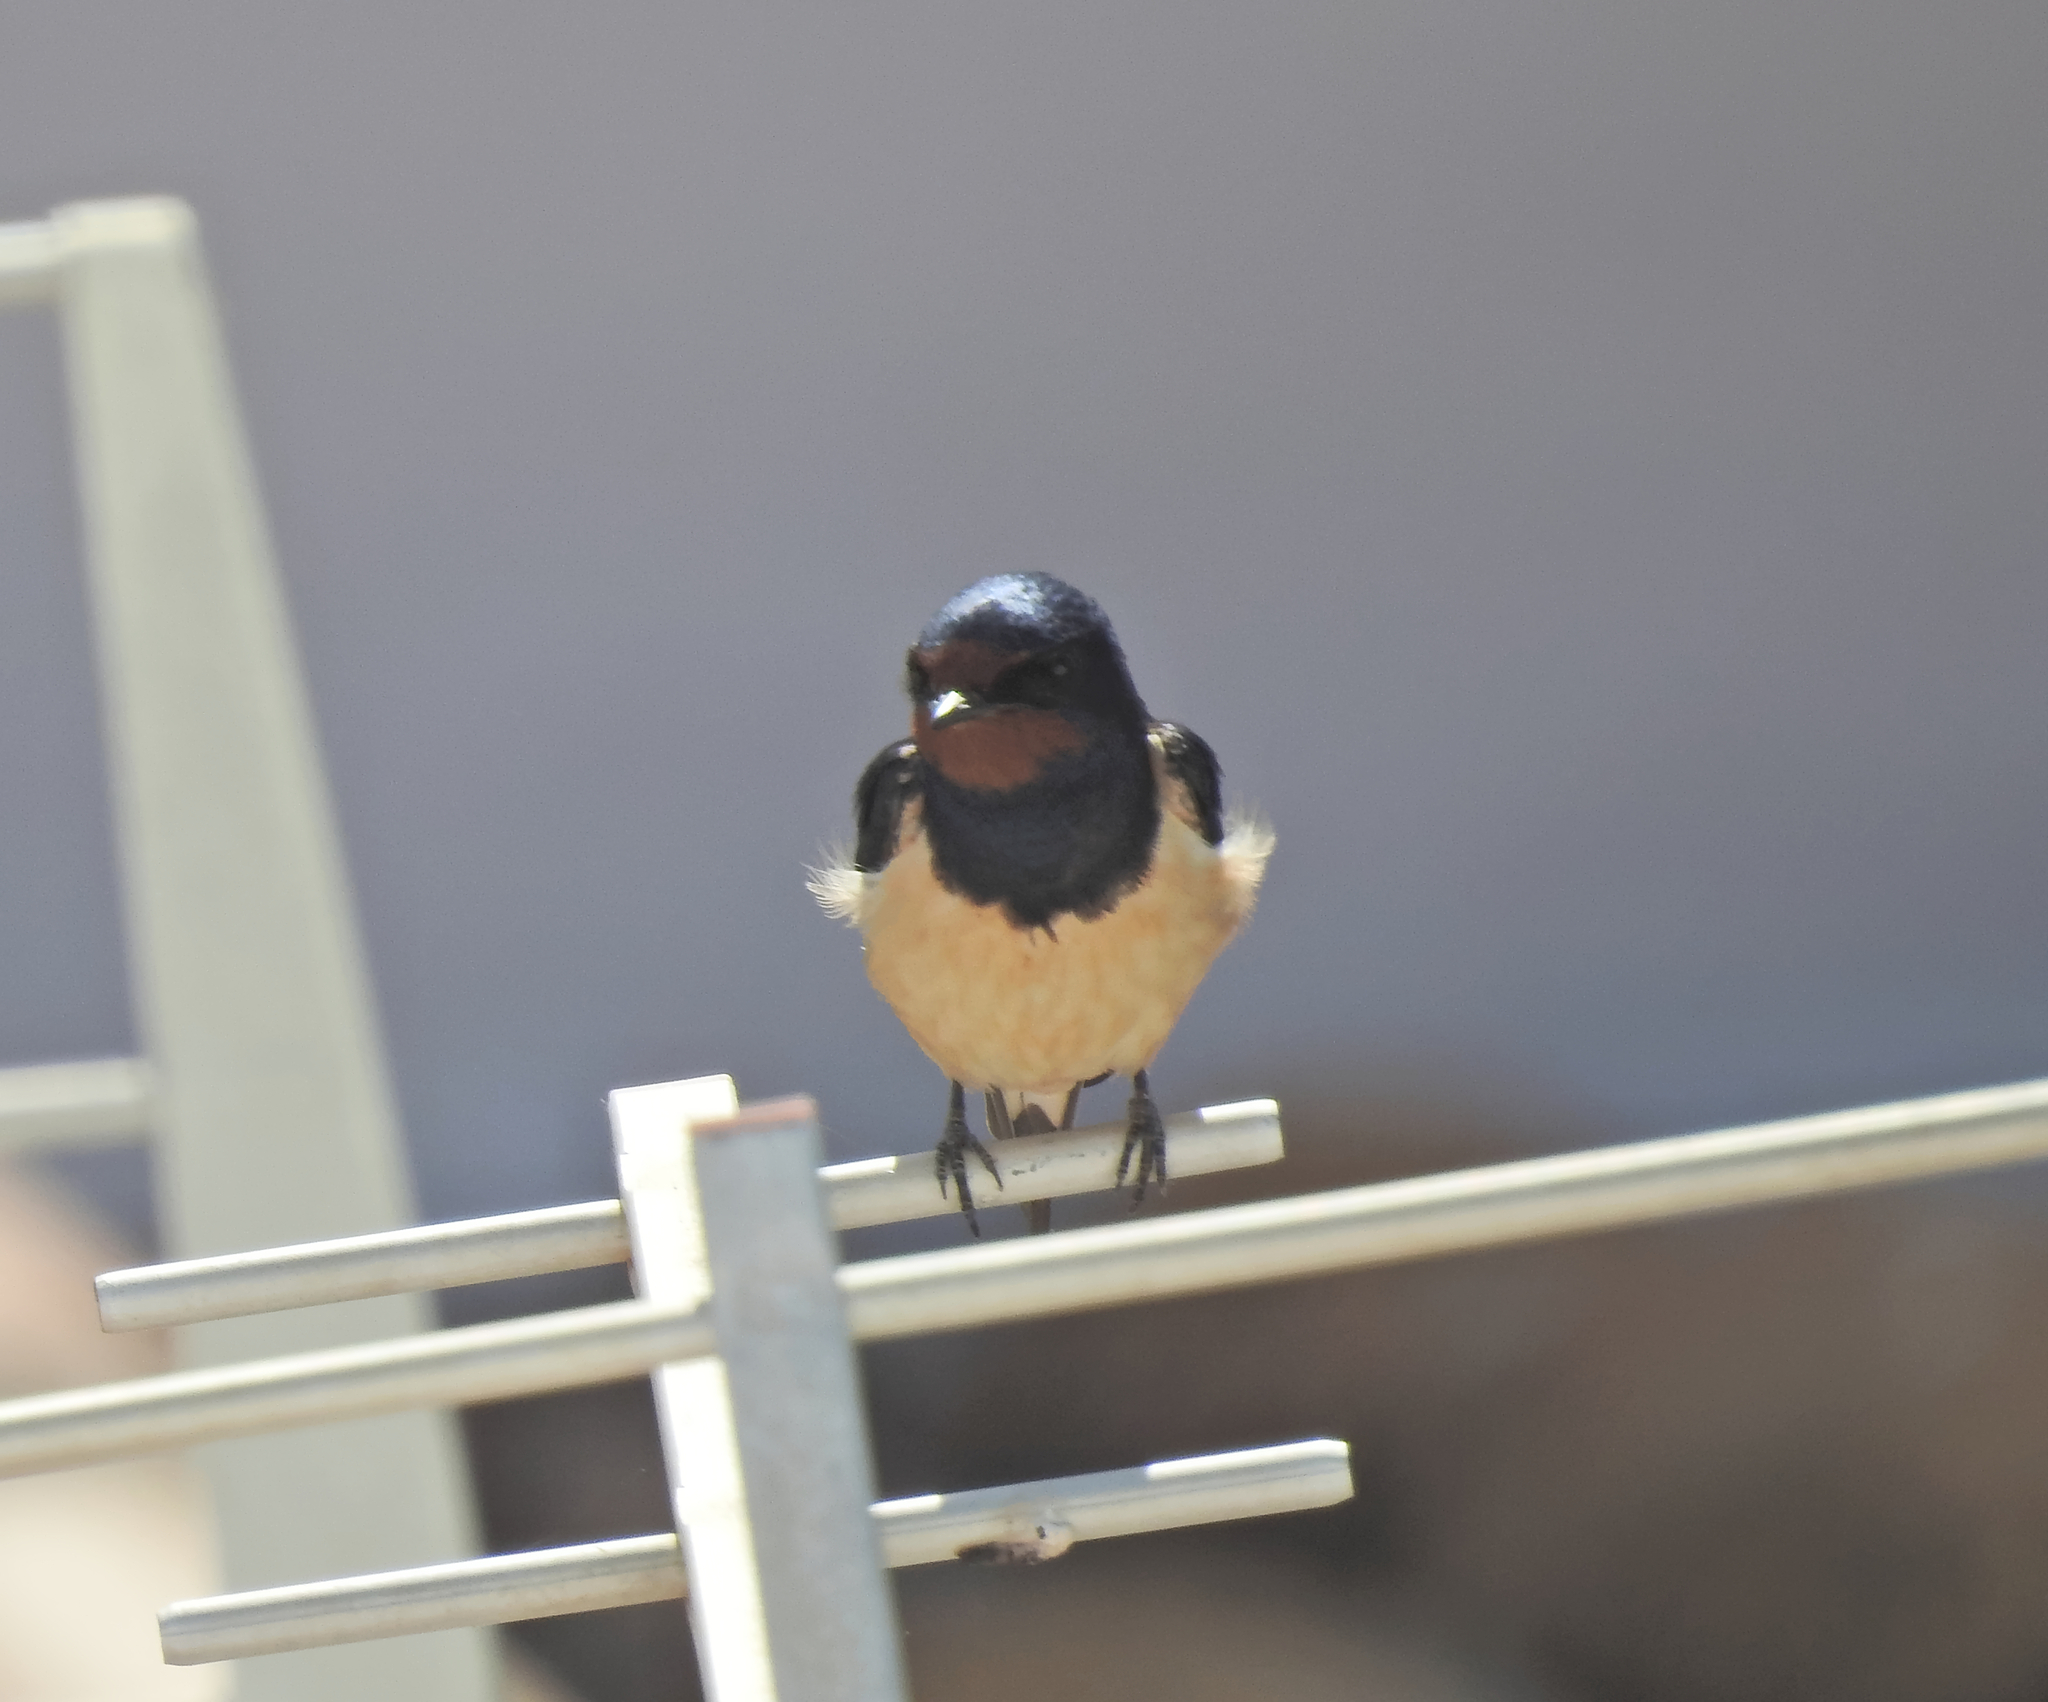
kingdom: Animalia
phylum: Chordata
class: Aves
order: Passeriformes
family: Hirundinidae
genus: Hirundo
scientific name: Hirundo rustica
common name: Barn swallow
